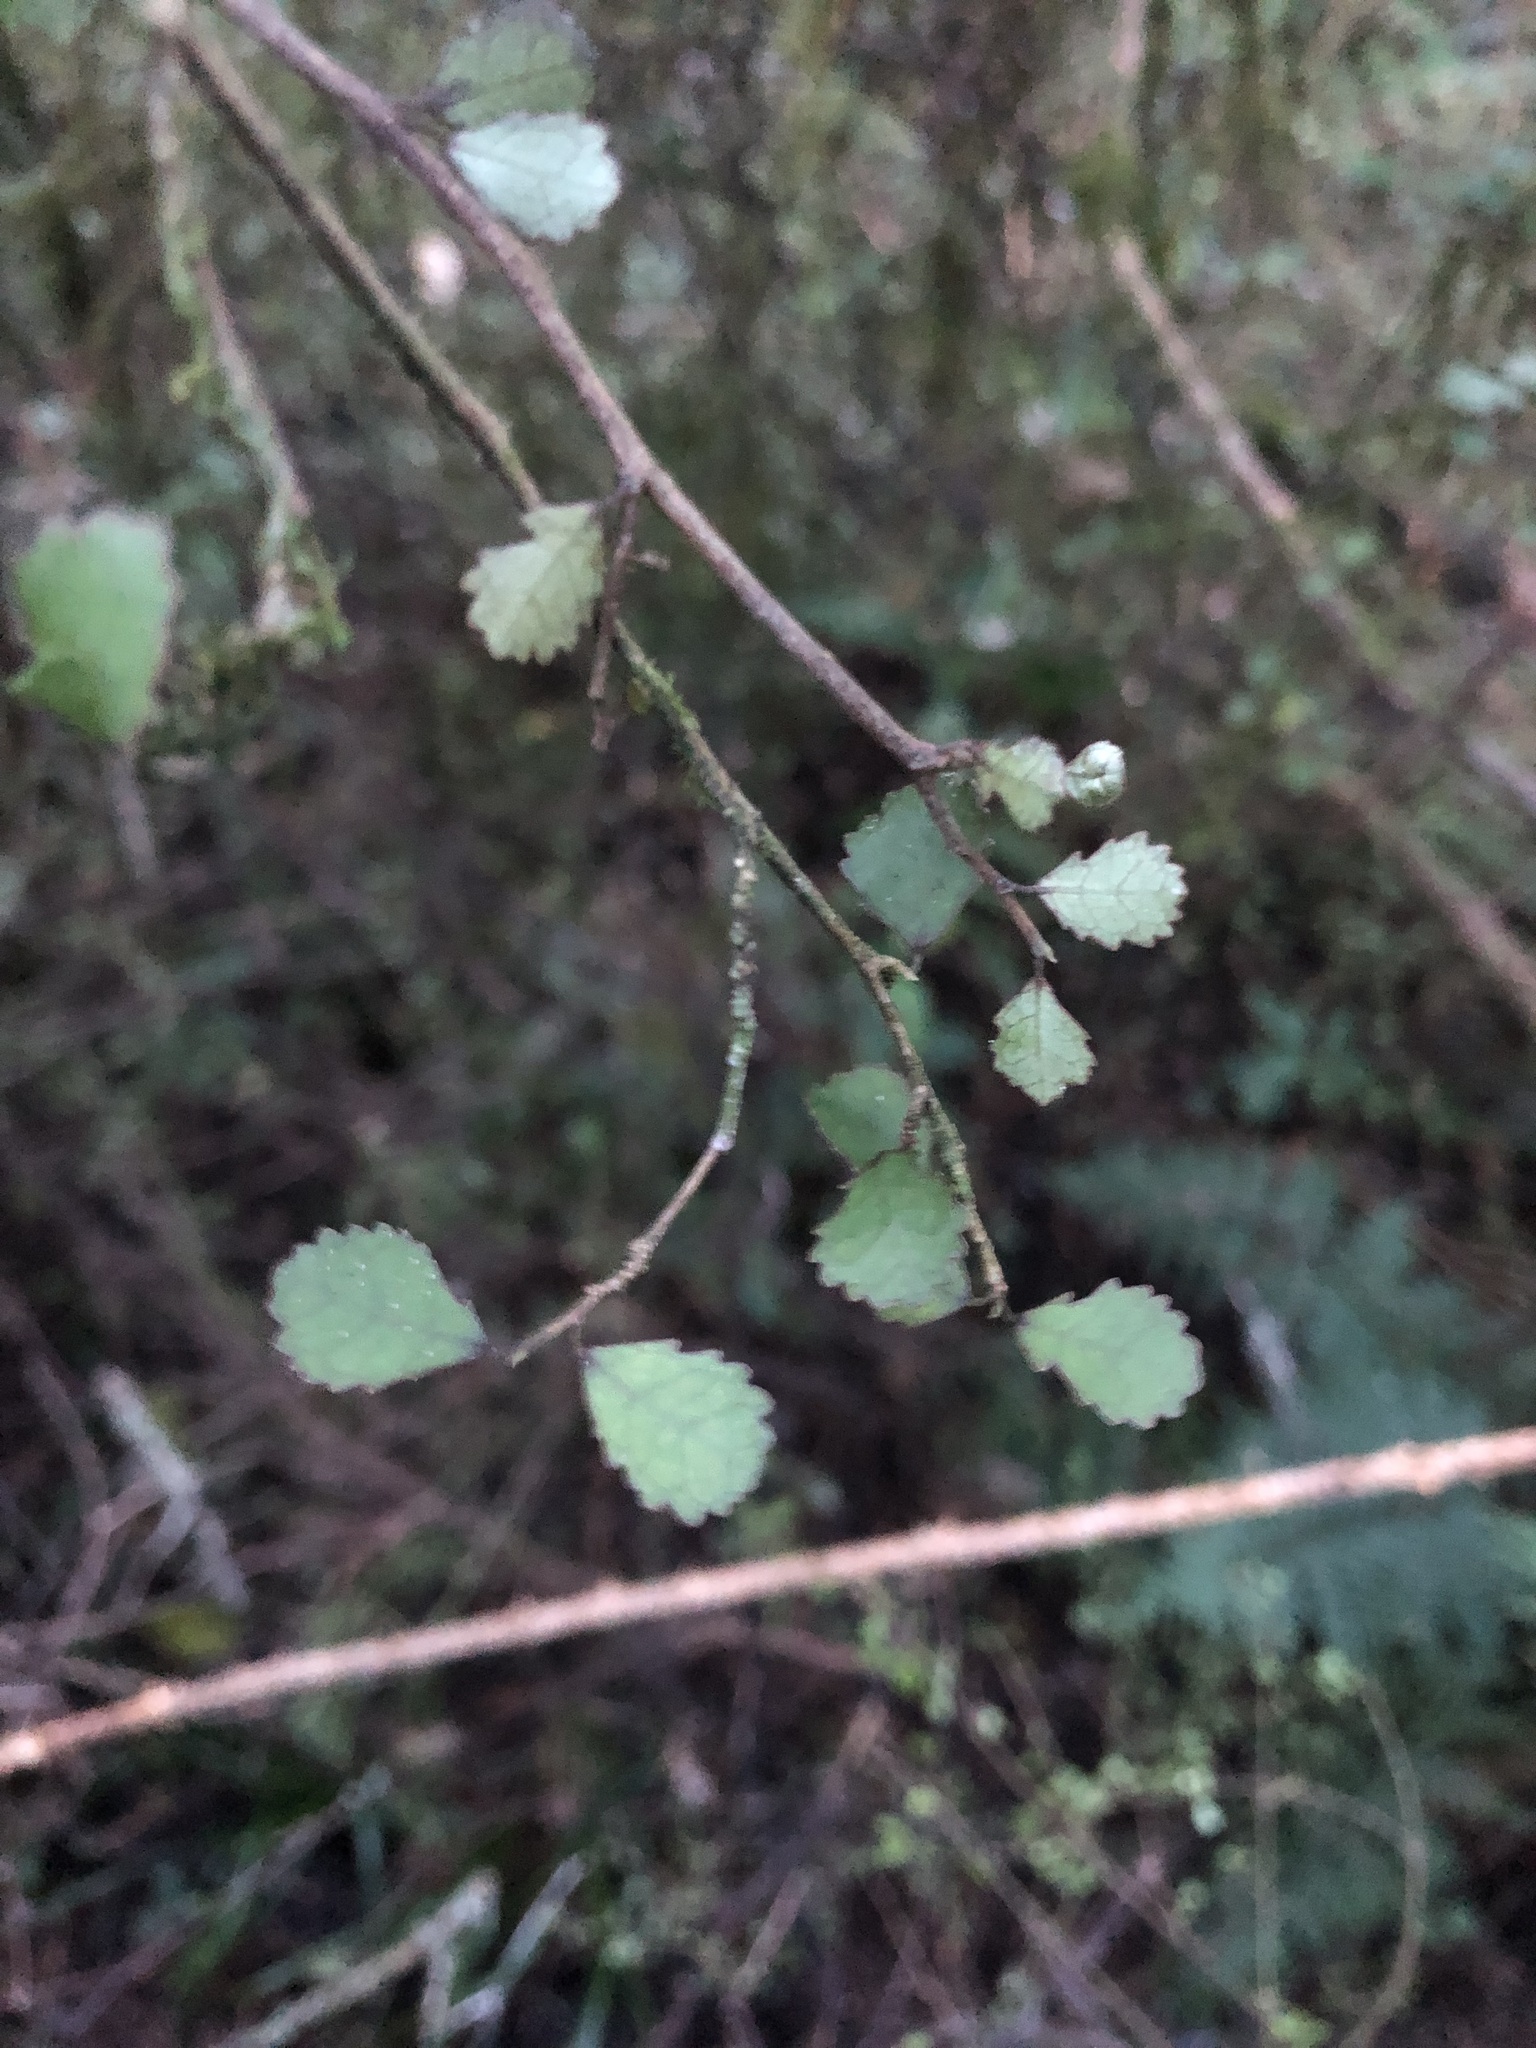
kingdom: Plantae
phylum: Tracheophyta
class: Magnoliopsida
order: Rosales
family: Moraceae
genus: Paratrophis
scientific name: Paratrophis microphylla
